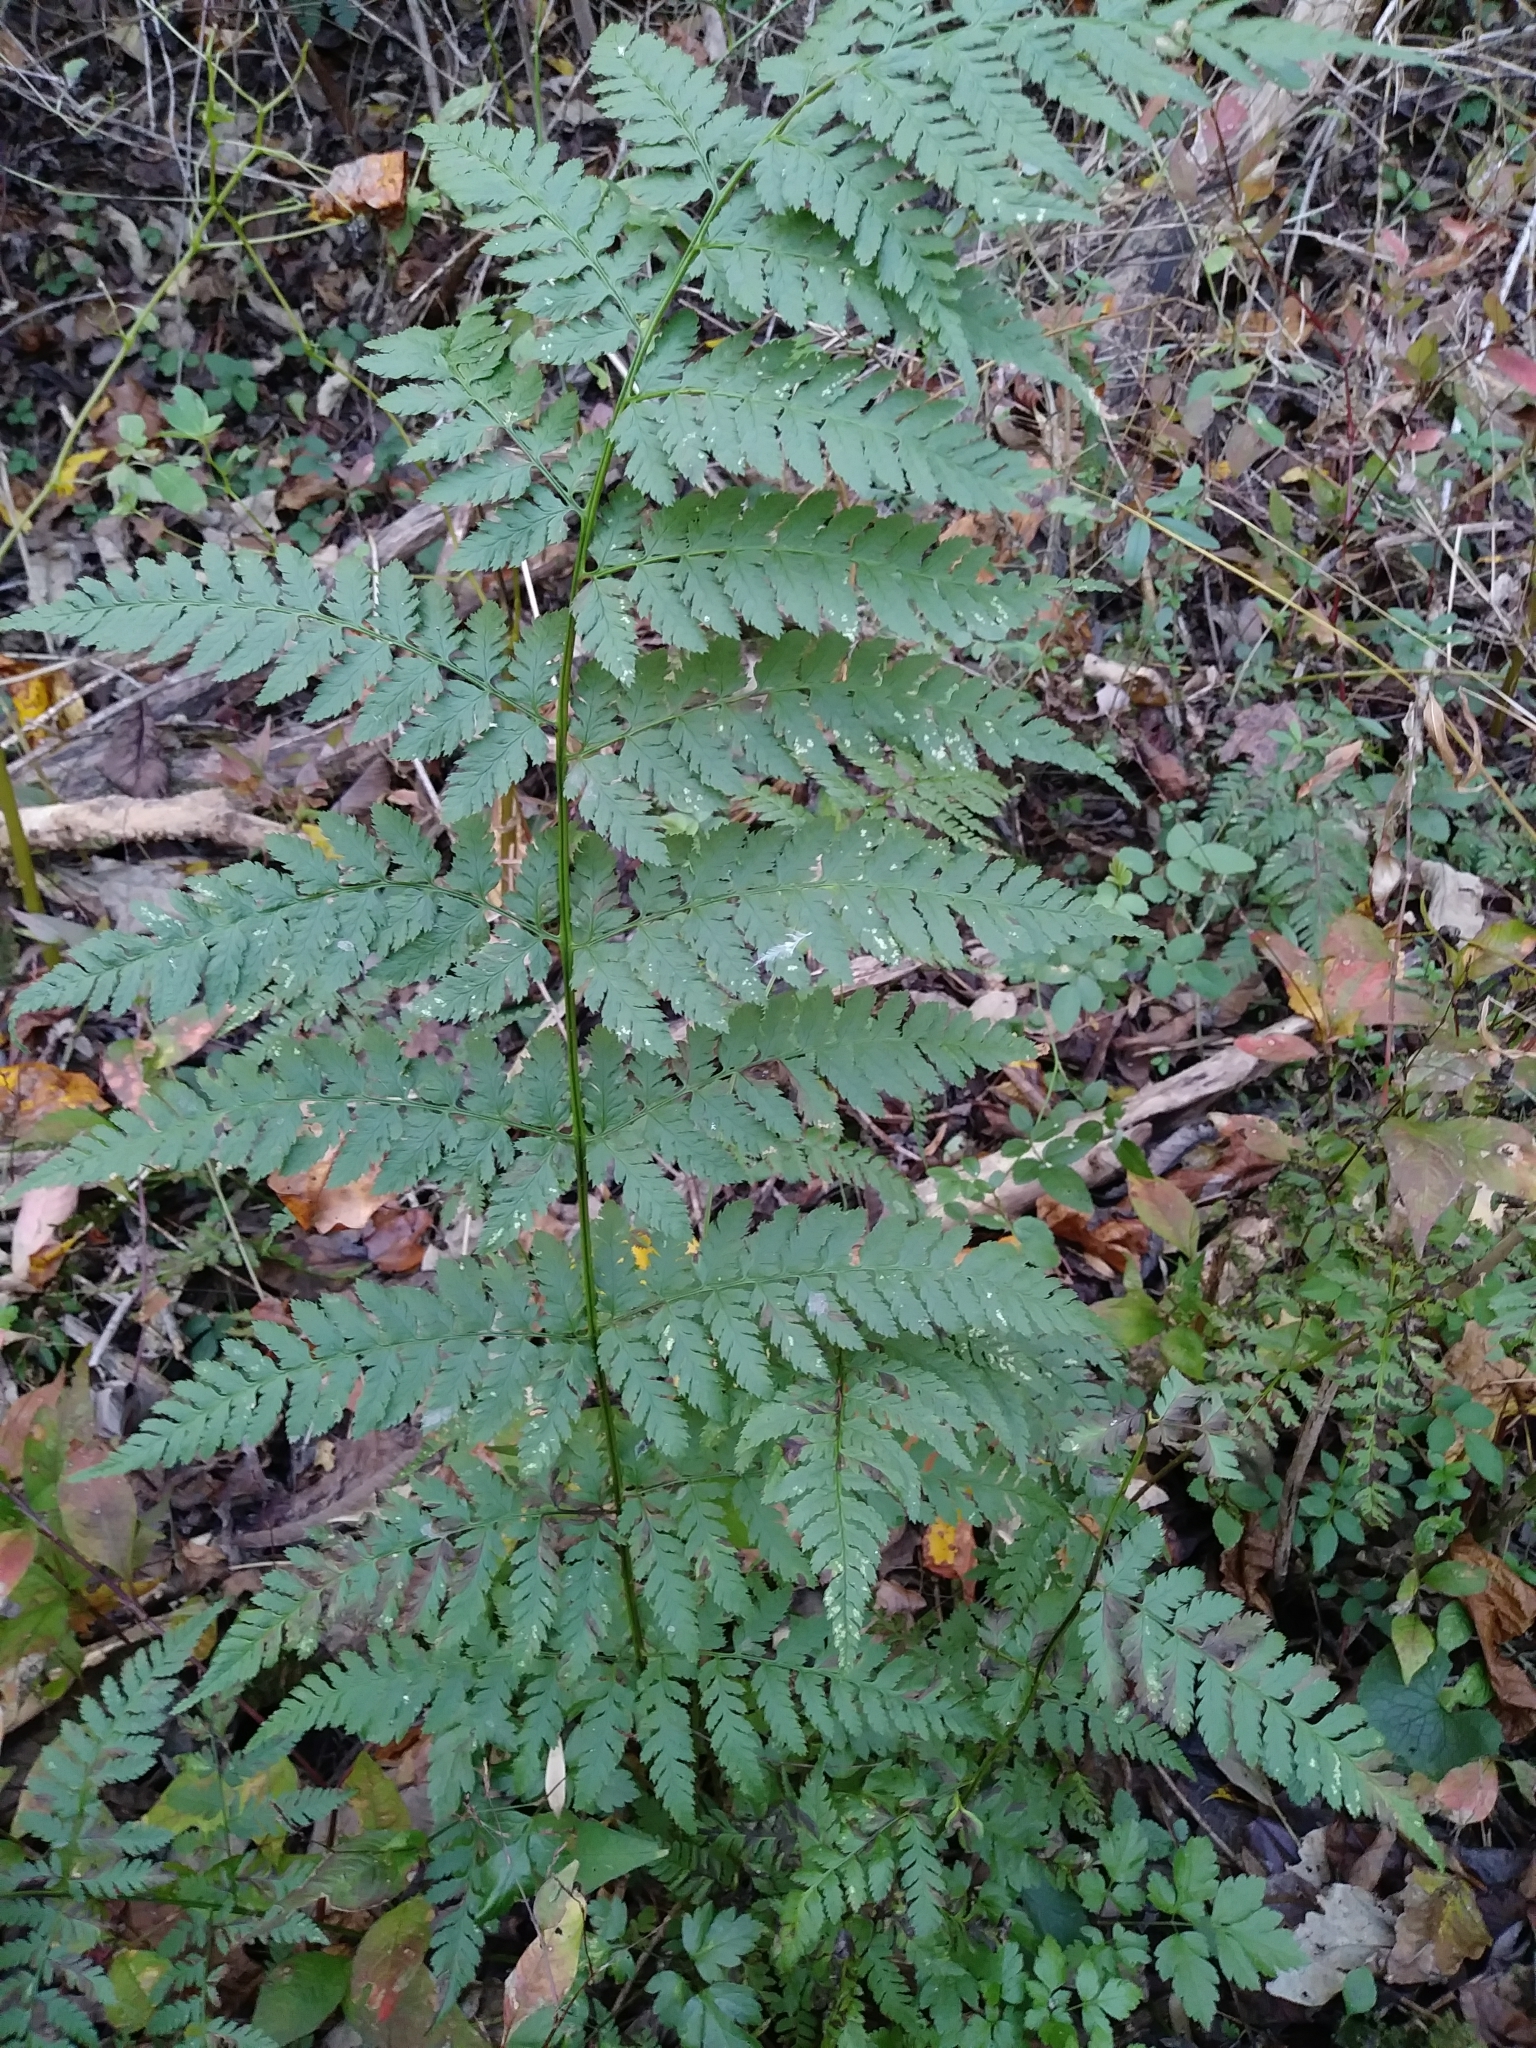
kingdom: Plantae
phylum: Tracheophyta
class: Polypodiopsida
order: Polypodiales
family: Dryopteridaceae
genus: Dryopteris
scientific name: Dryopteris triploidea
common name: Fruitful wood fern
